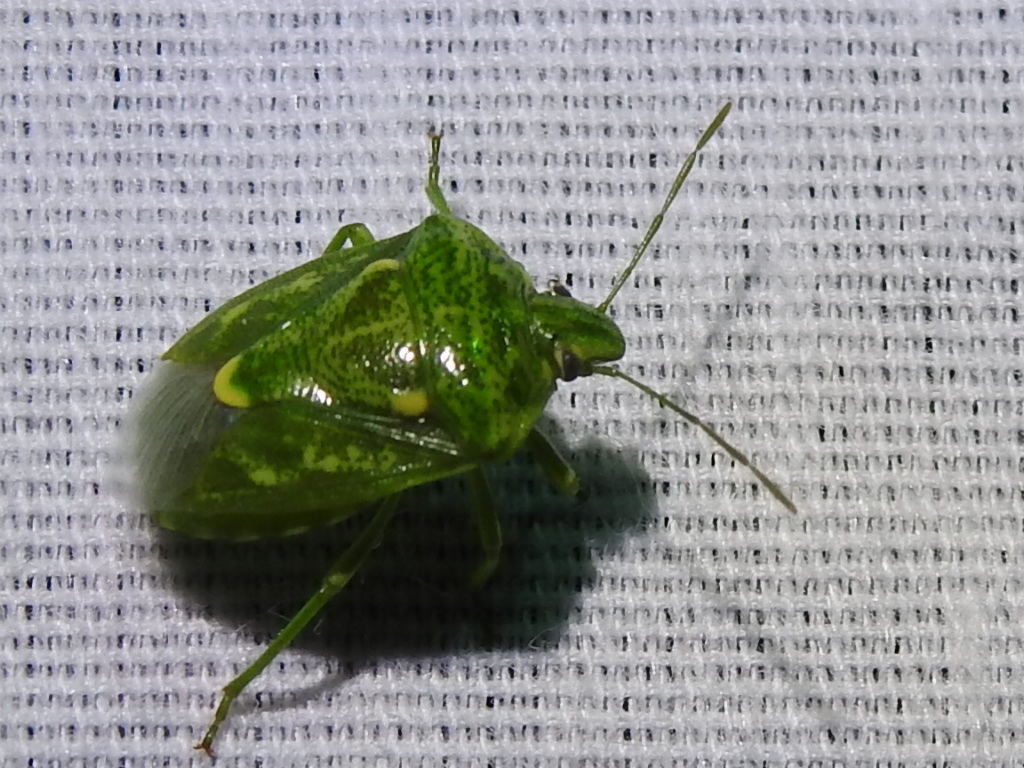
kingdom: Animalia
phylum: Arthropoda
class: Insecta
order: Hemiptera
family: Pentatomidae
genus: Banasa
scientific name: Banasa euchlora
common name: Cedar berry bug
